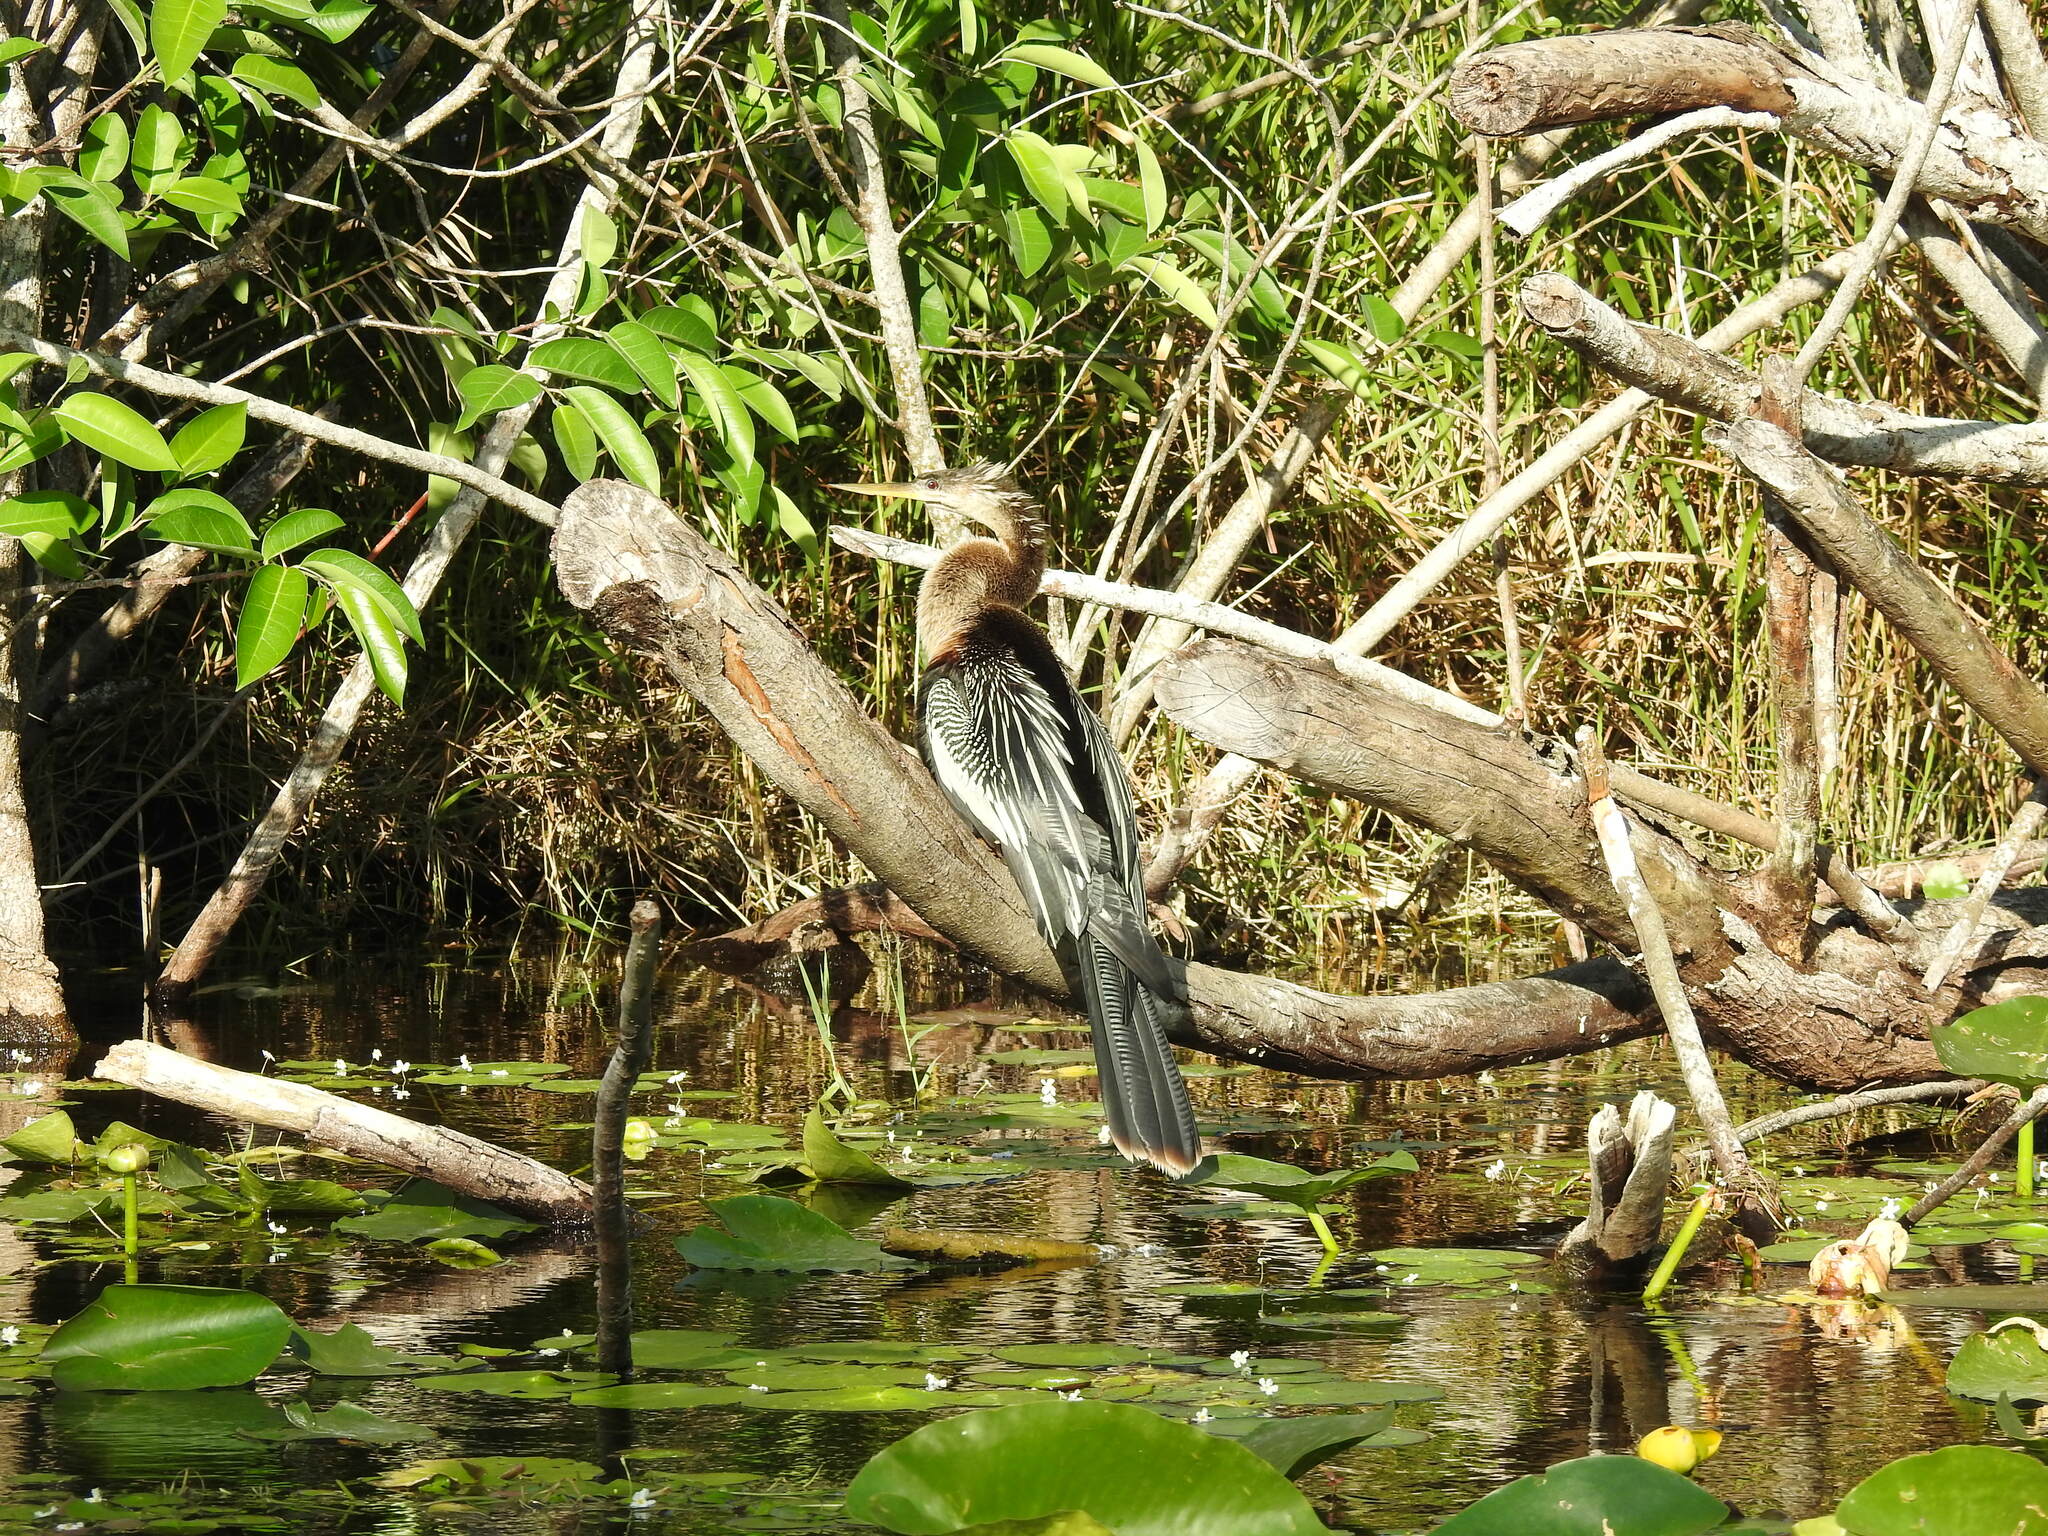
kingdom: Animalia
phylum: Chordata
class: Aves
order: Suliformes
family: Anhingidae
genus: Anhinga
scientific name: Anhinga anhinga
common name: Anhinga
